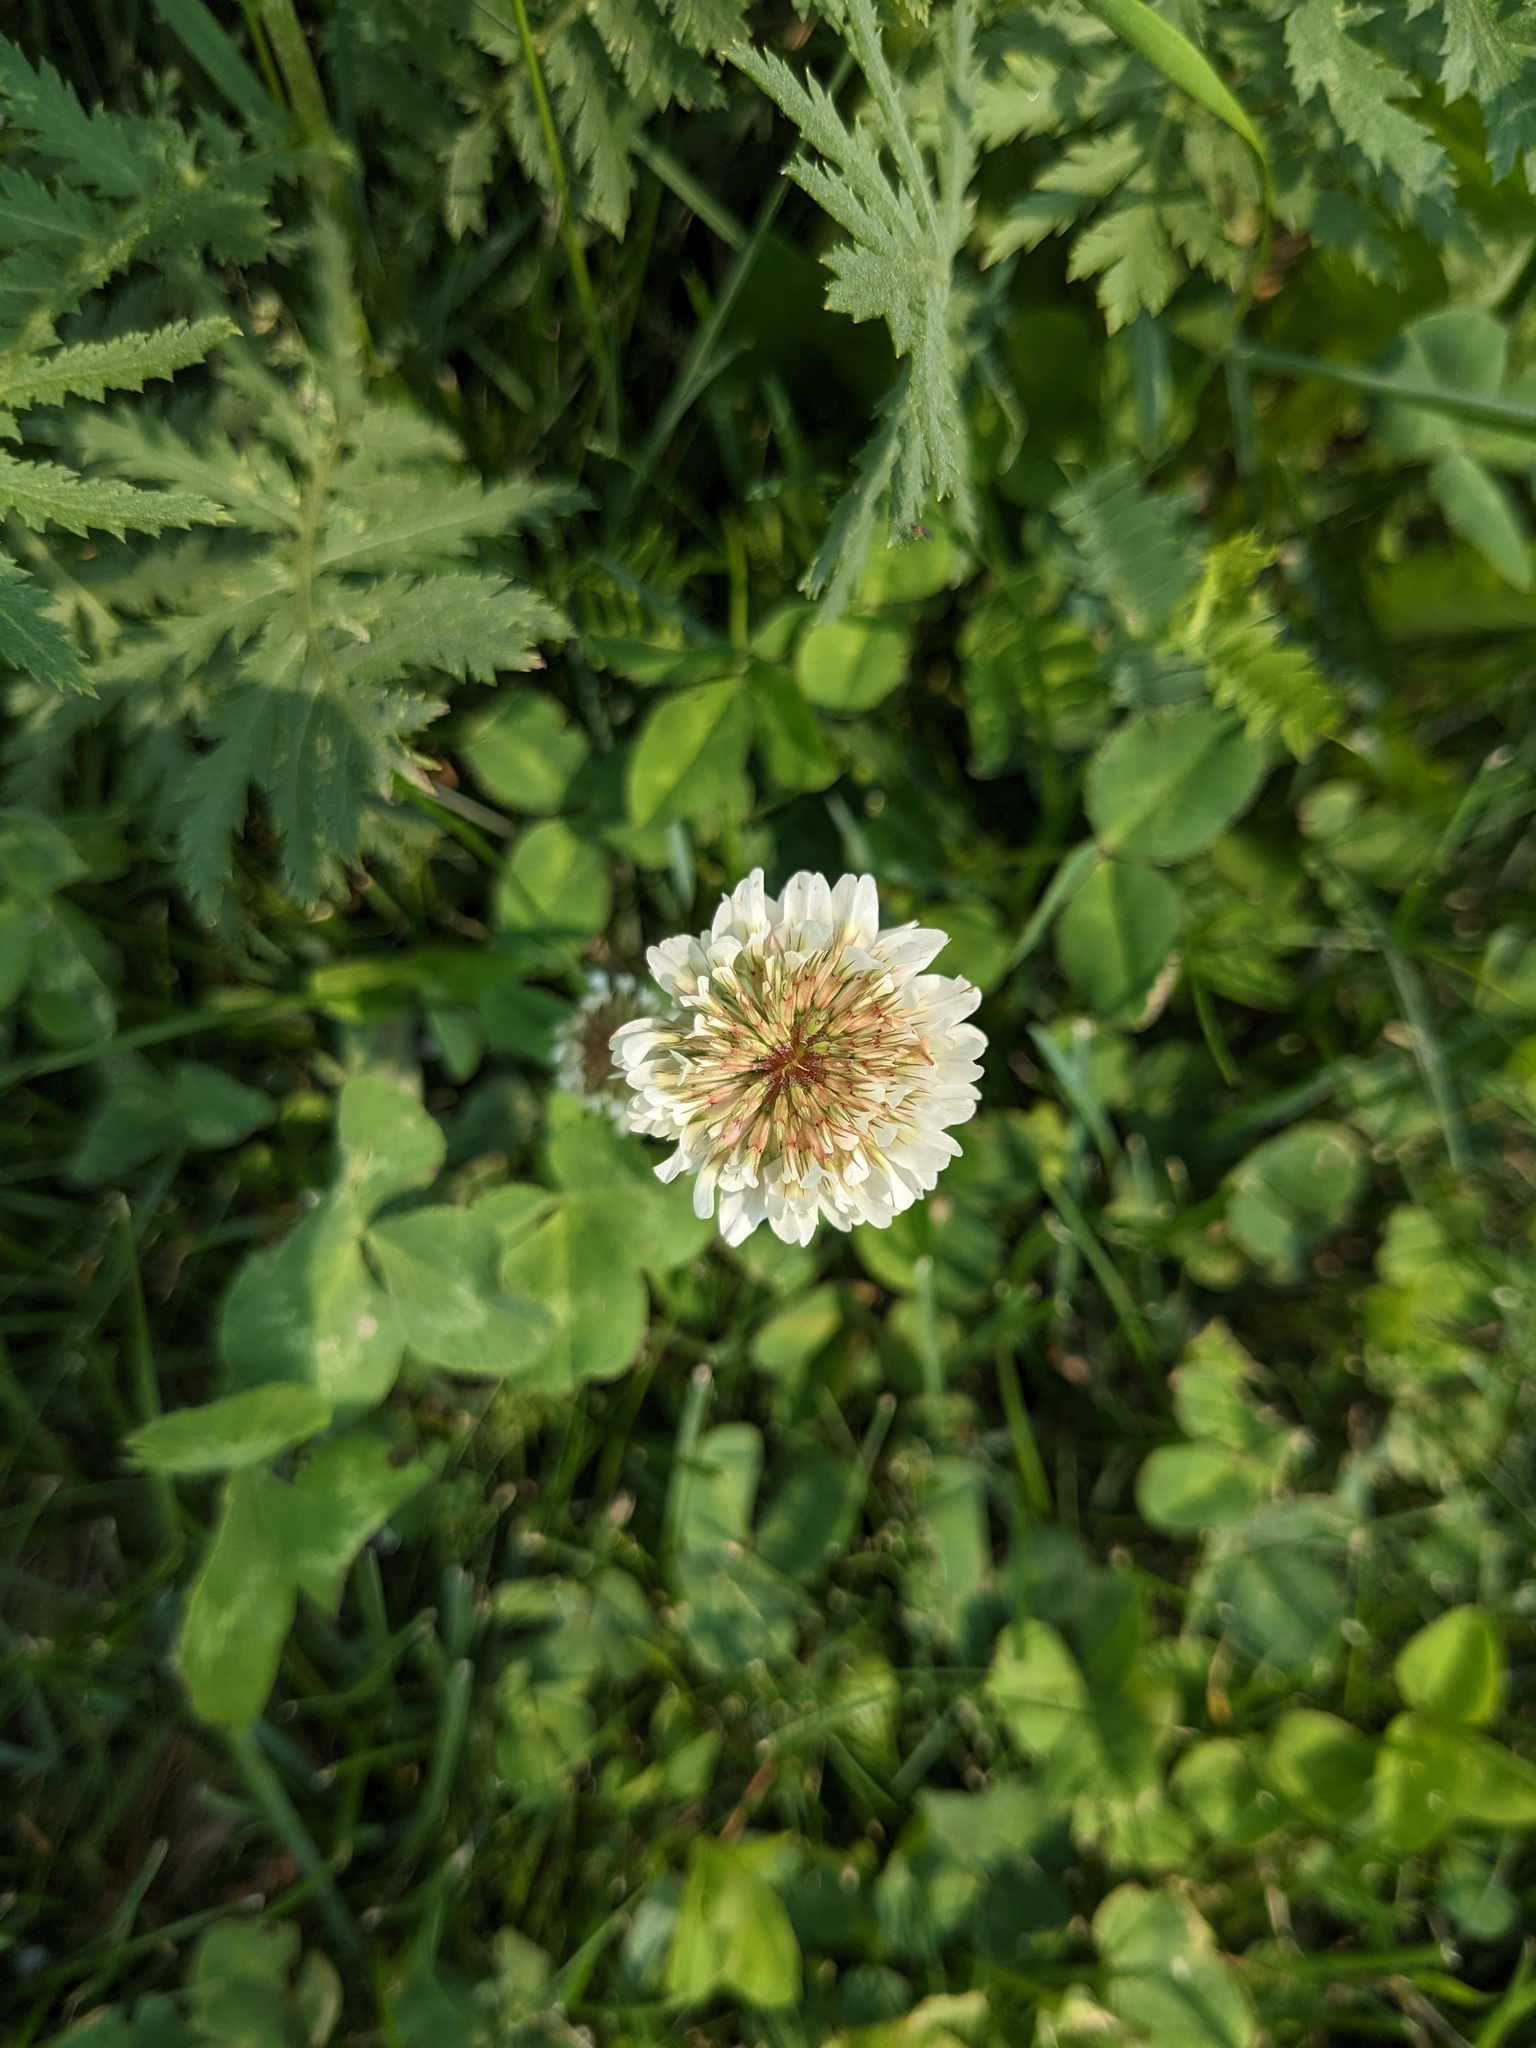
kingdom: Plantae
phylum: Tracheophyta
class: Magnoliopsida
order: Fabales
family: Fabaceae
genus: Trifolium
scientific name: Trifolium repens
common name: White clover
